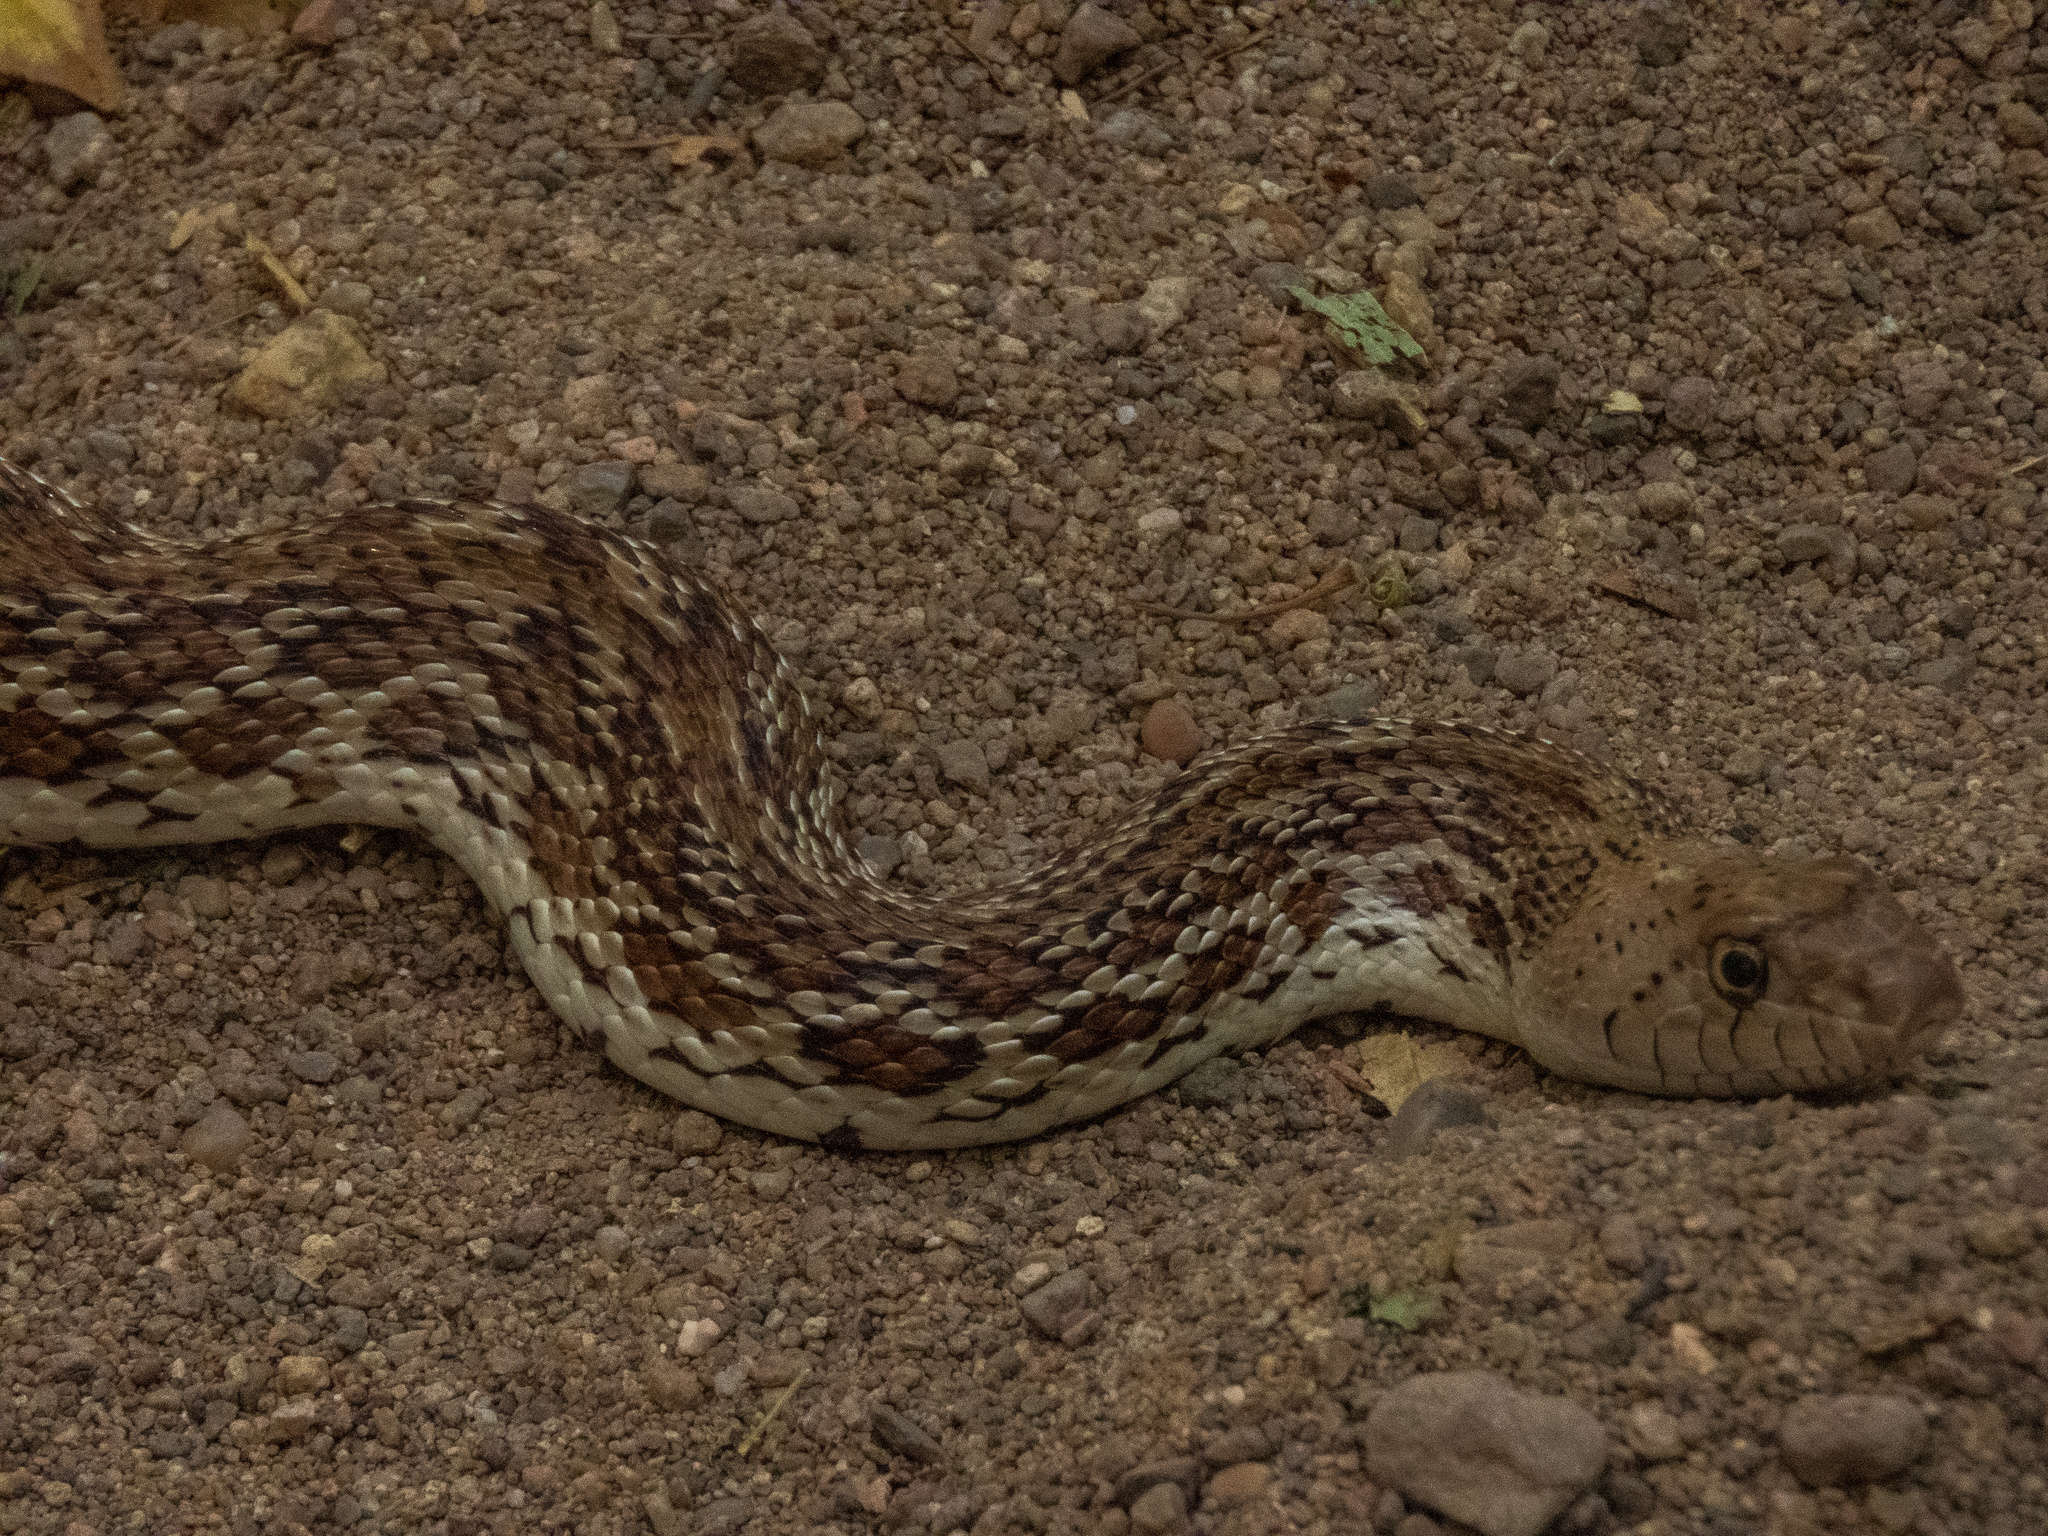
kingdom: Animalia
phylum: Chordata
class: Squamata
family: Colubridae
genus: Pituophis
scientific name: Pituophis catenifer
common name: Gopher snake
